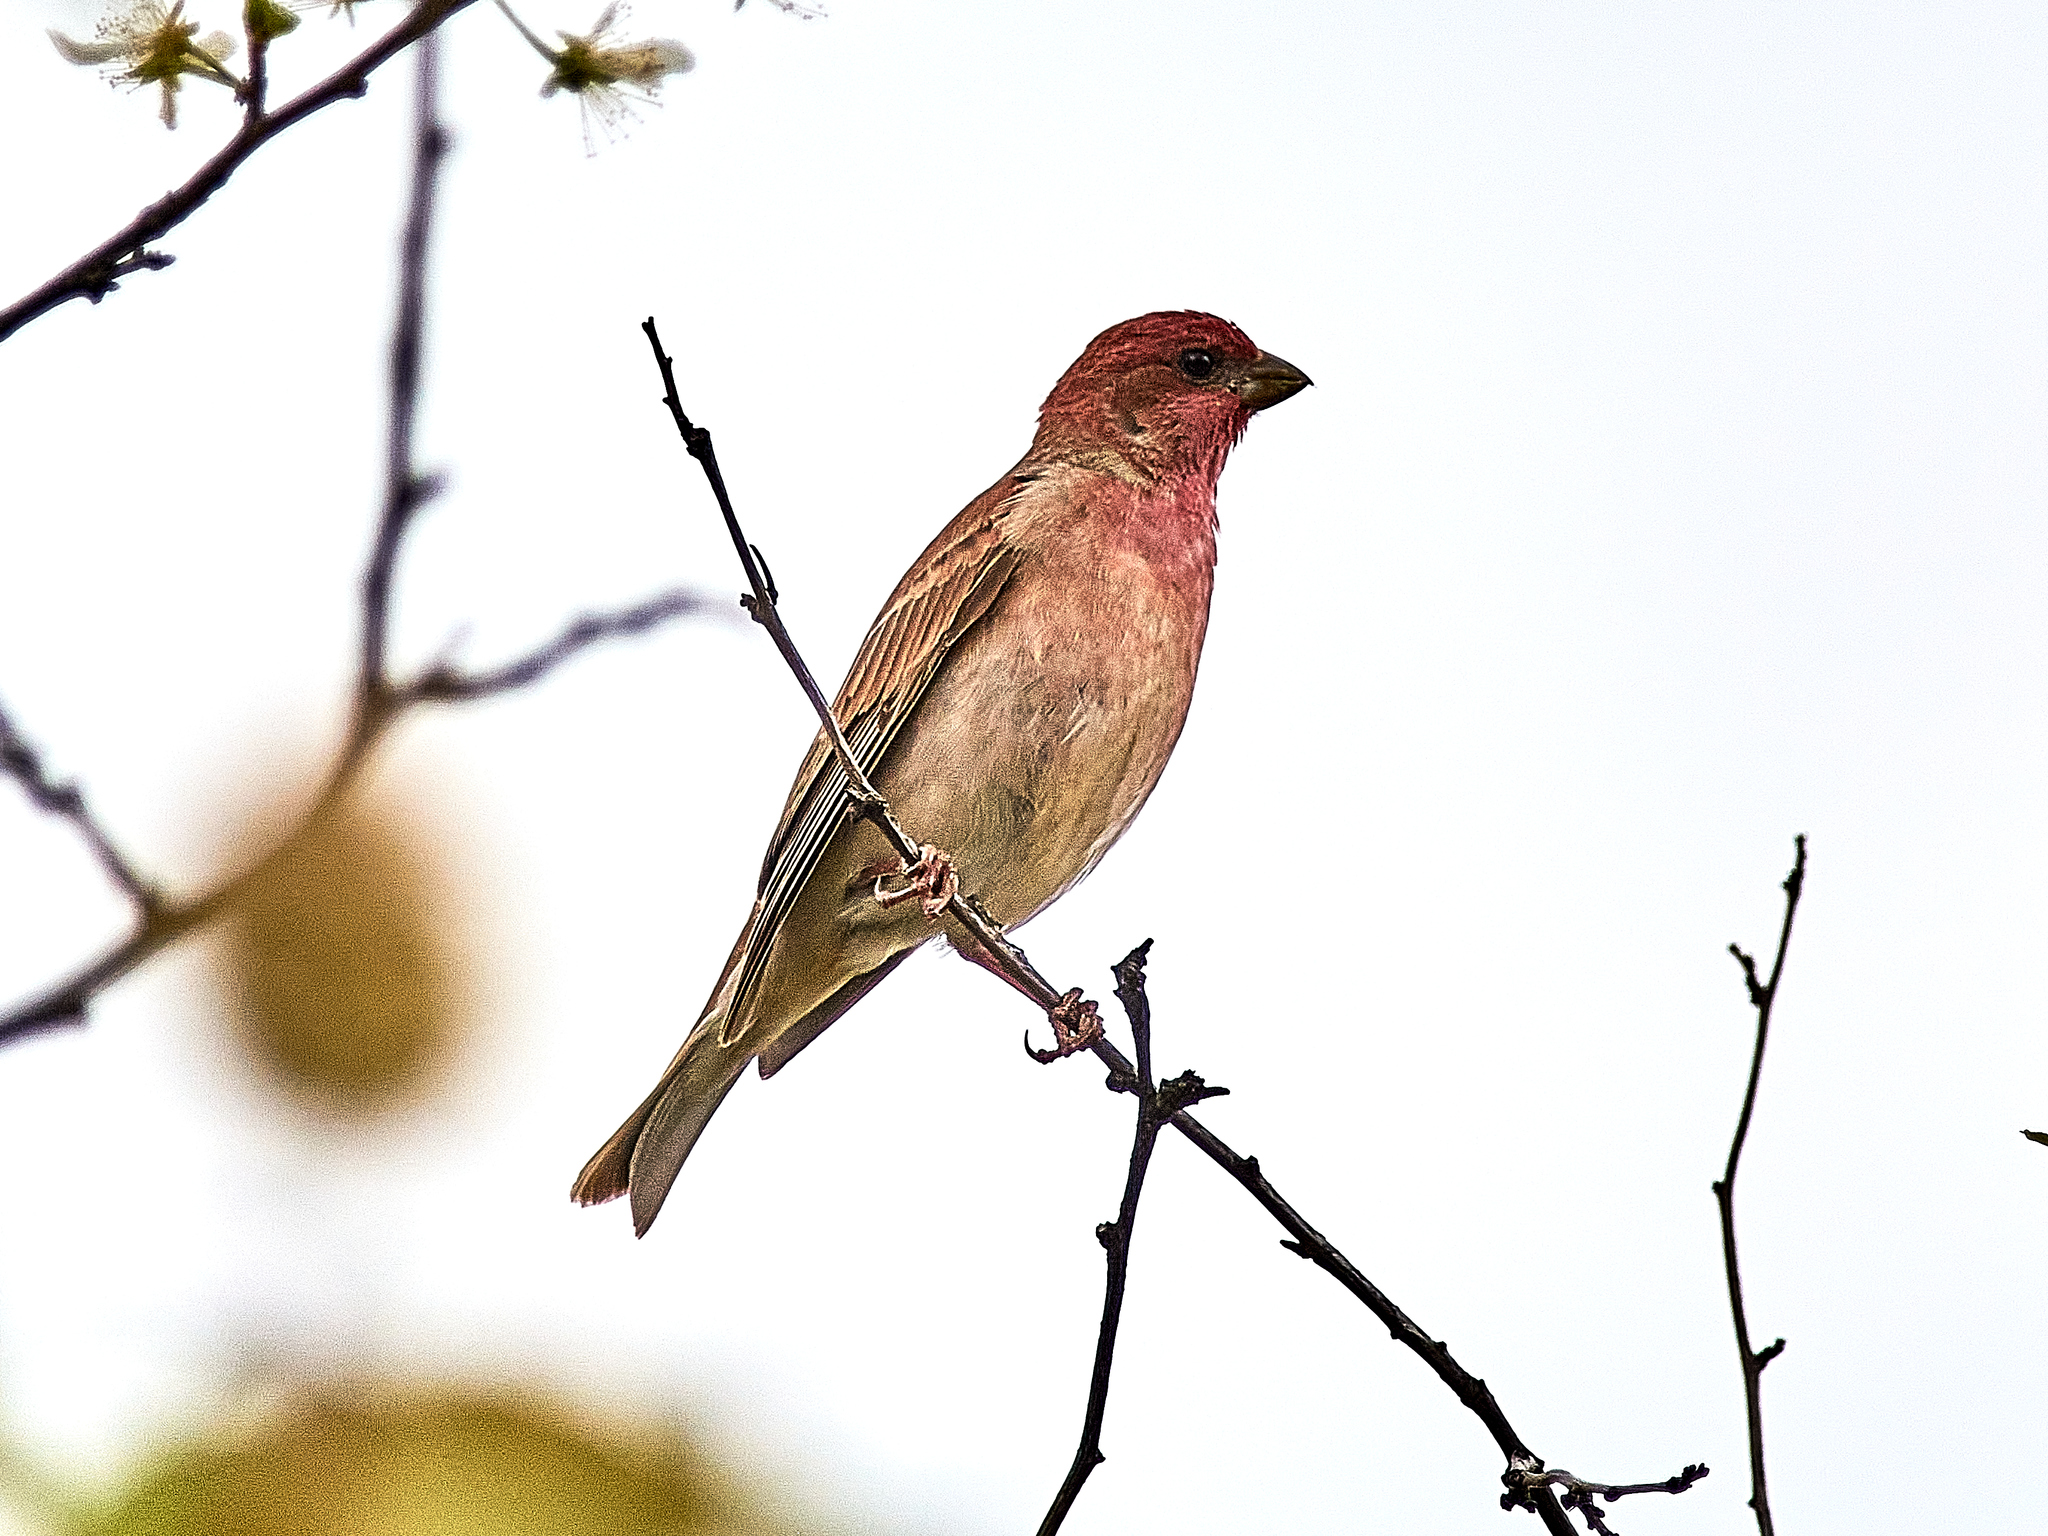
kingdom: Animalia
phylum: Chordata
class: Aves
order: Passeriformes
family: Fringillidae
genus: Carpodacus
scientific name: Carpodacus erythrinus
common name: Common rosefinch
